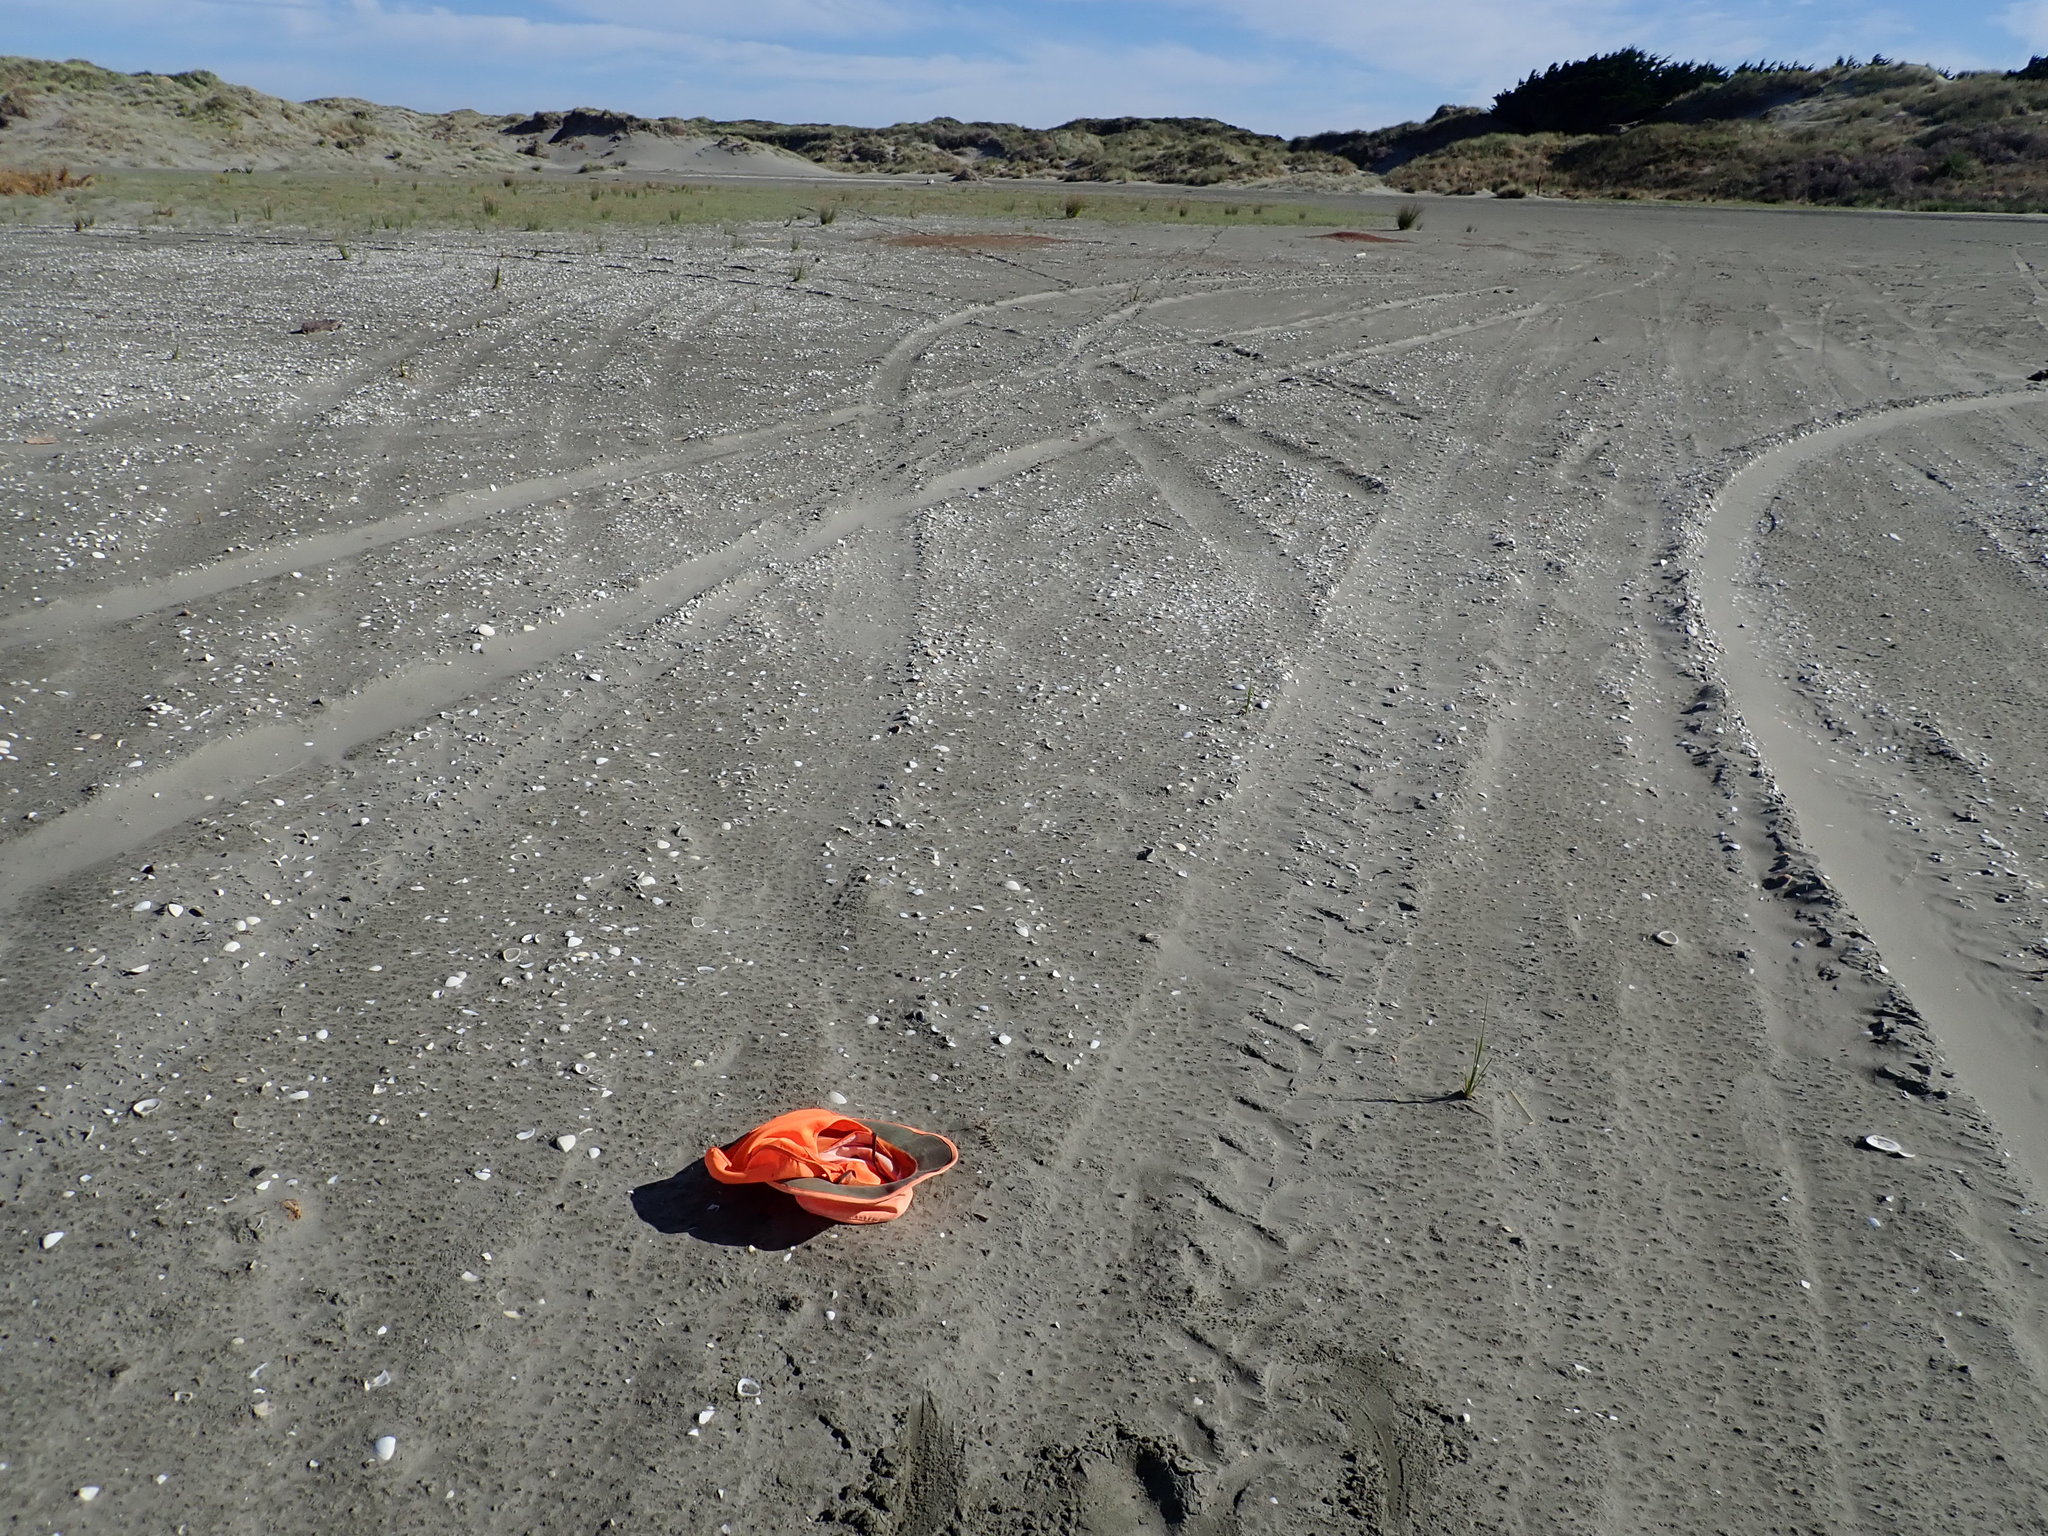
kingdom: Plantae
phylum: Tracheophyta
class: Magnoliopsida
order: Ericales
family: Primulaceae
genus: Samolus
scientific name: Samolus repens
